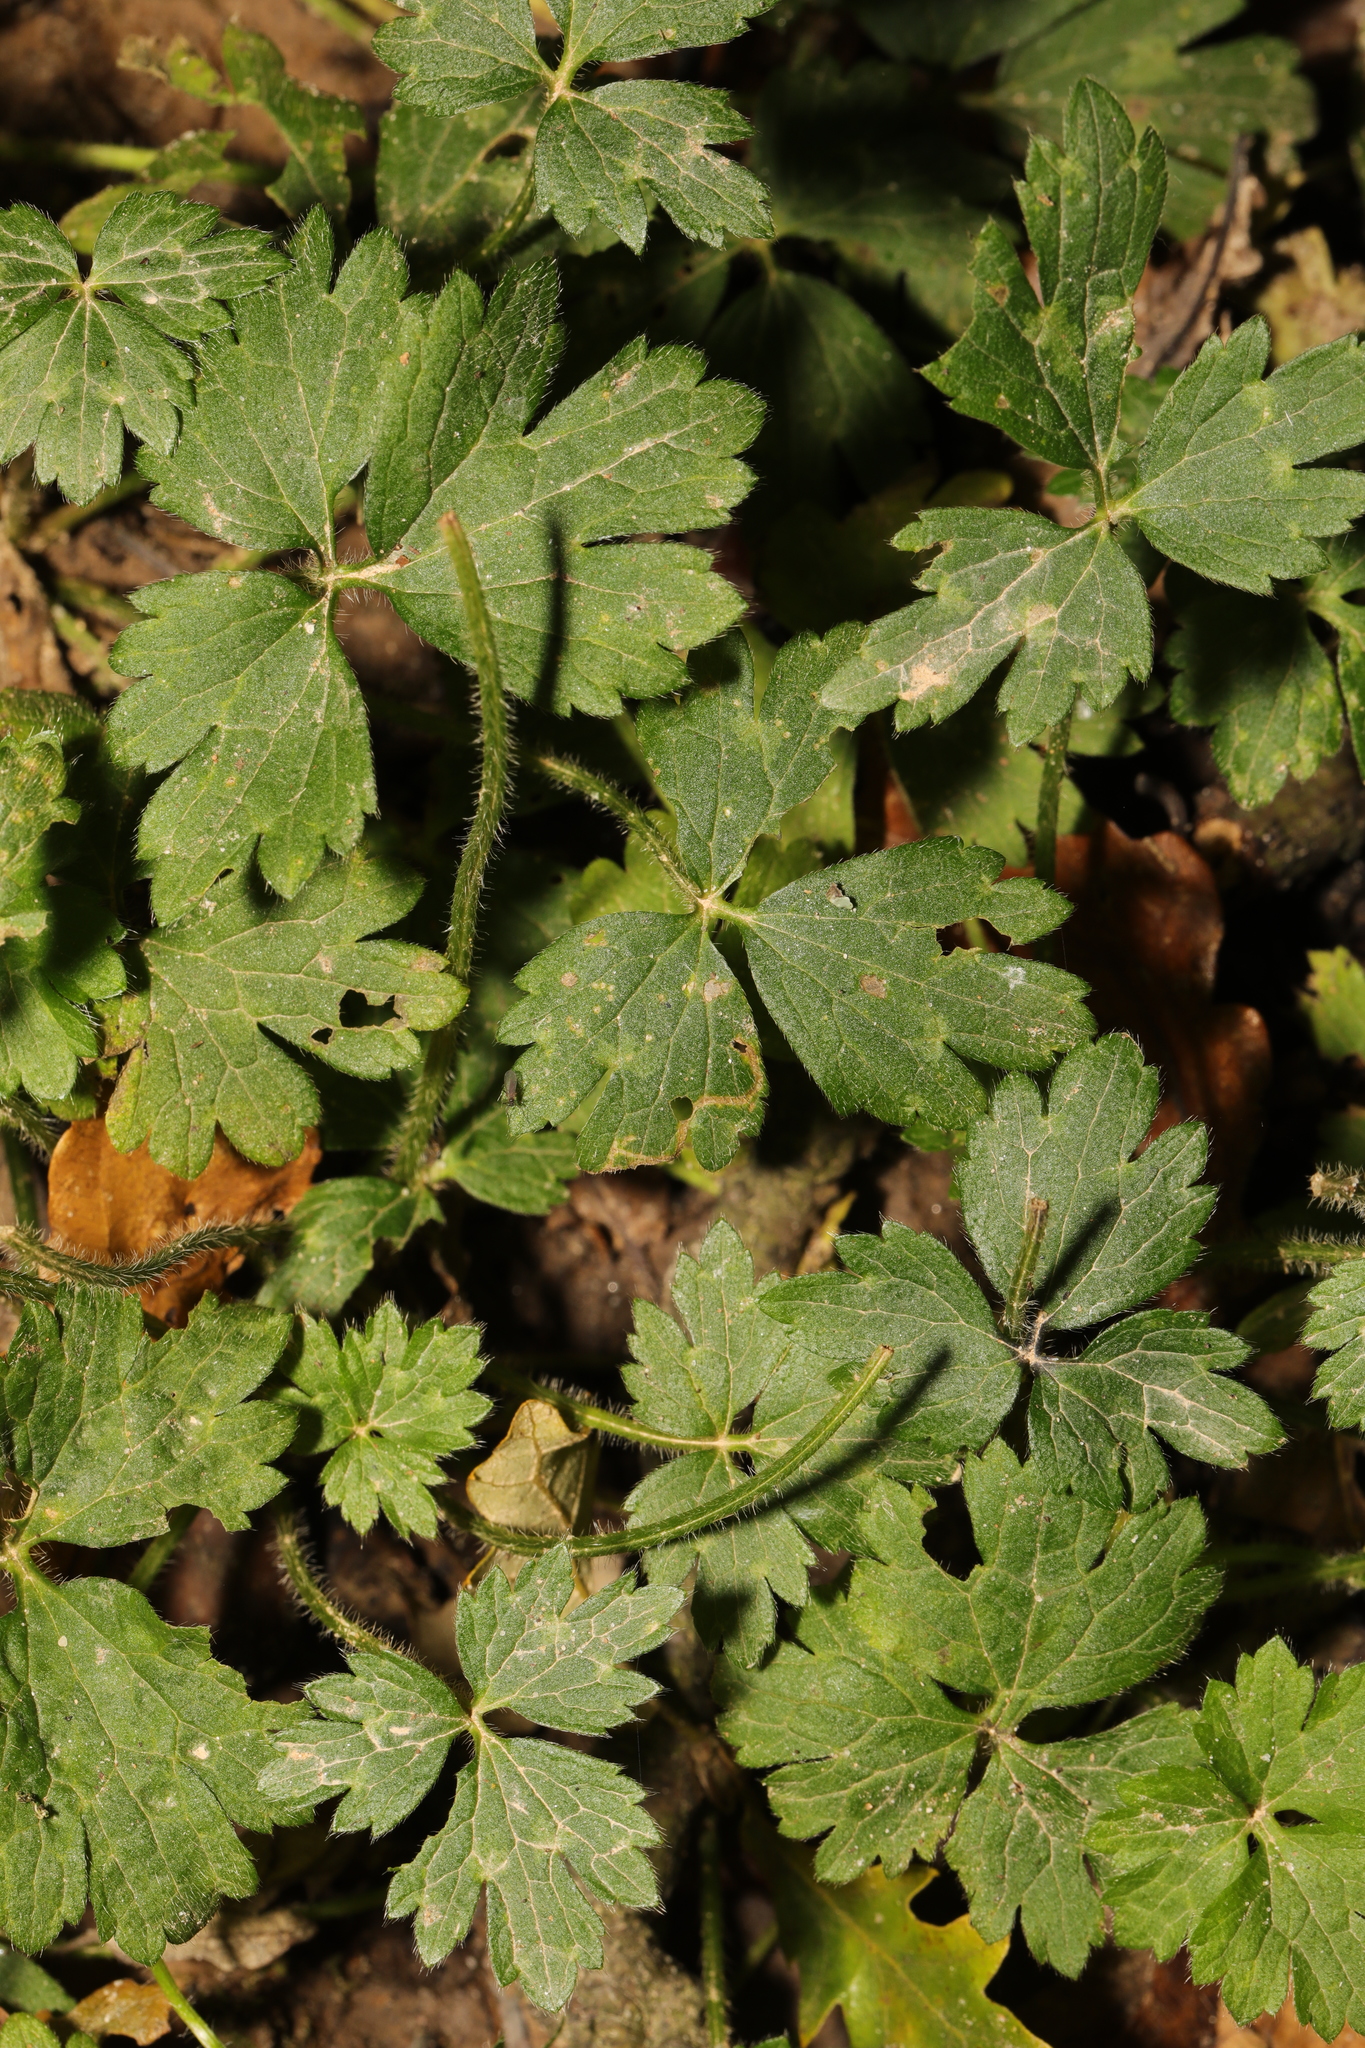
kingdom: Plantae
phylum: Tracheophyta
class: Magnoliopsida
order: Ranunculales
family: Ranunculaceae
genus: Ranunculus
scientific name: Ranunculus repens
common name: Creeping buttercup
